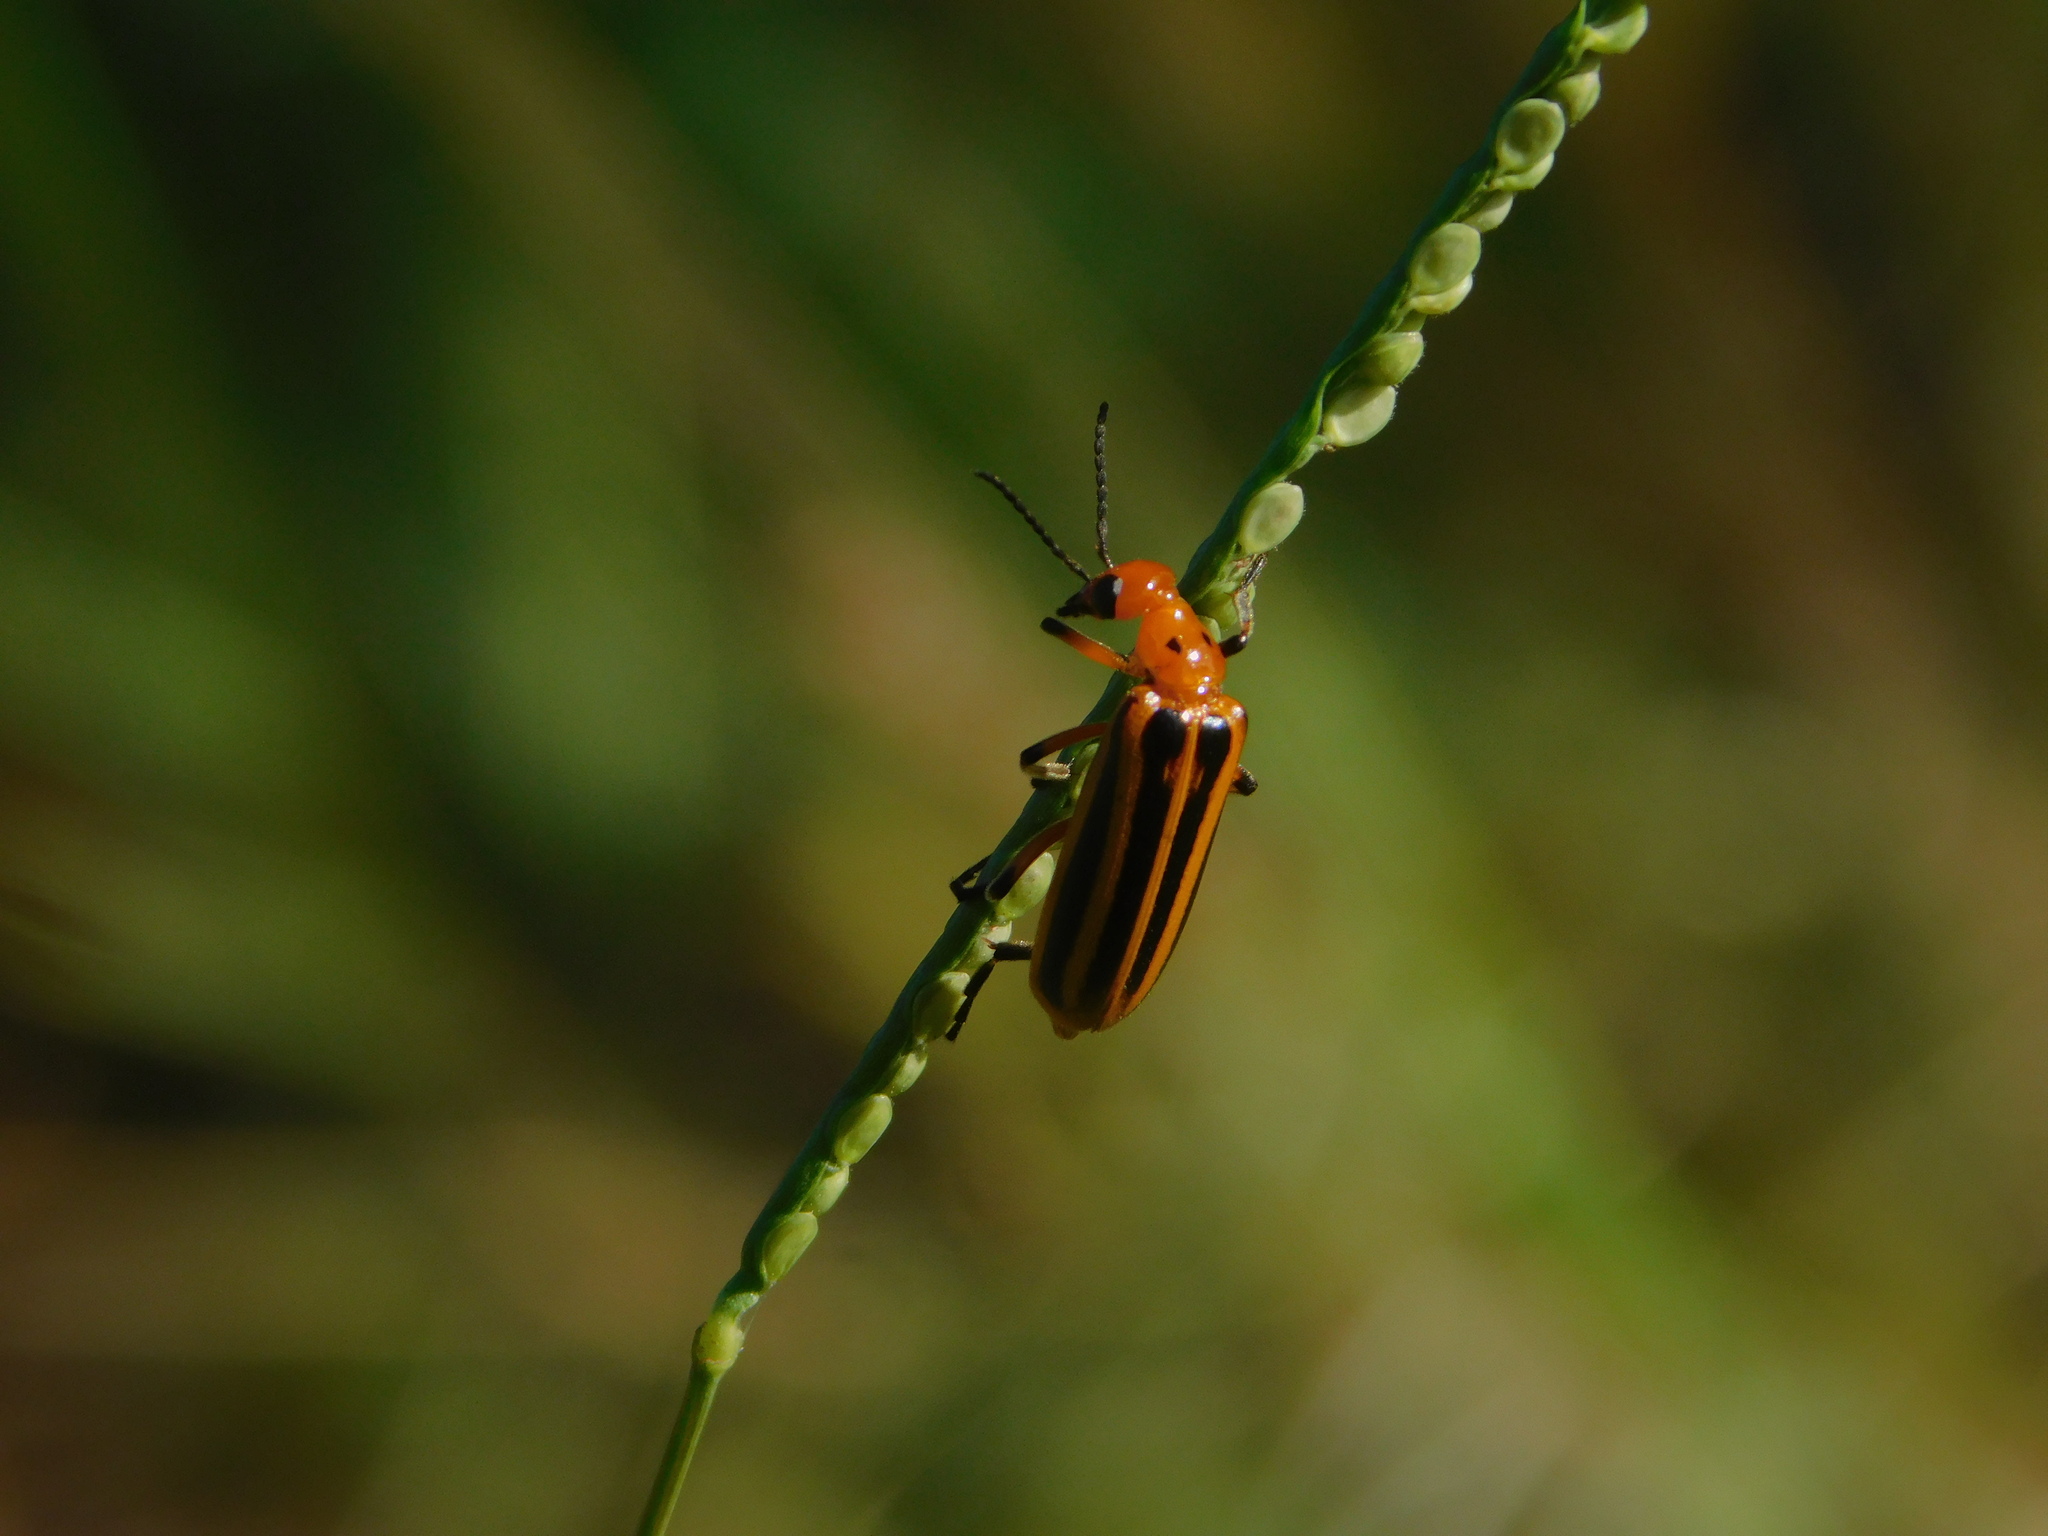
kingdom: Animalia
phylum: Arthropoda
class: Insecta
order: Coleoptera
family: Meloidae
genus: Pyrota
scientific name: Pyrota
